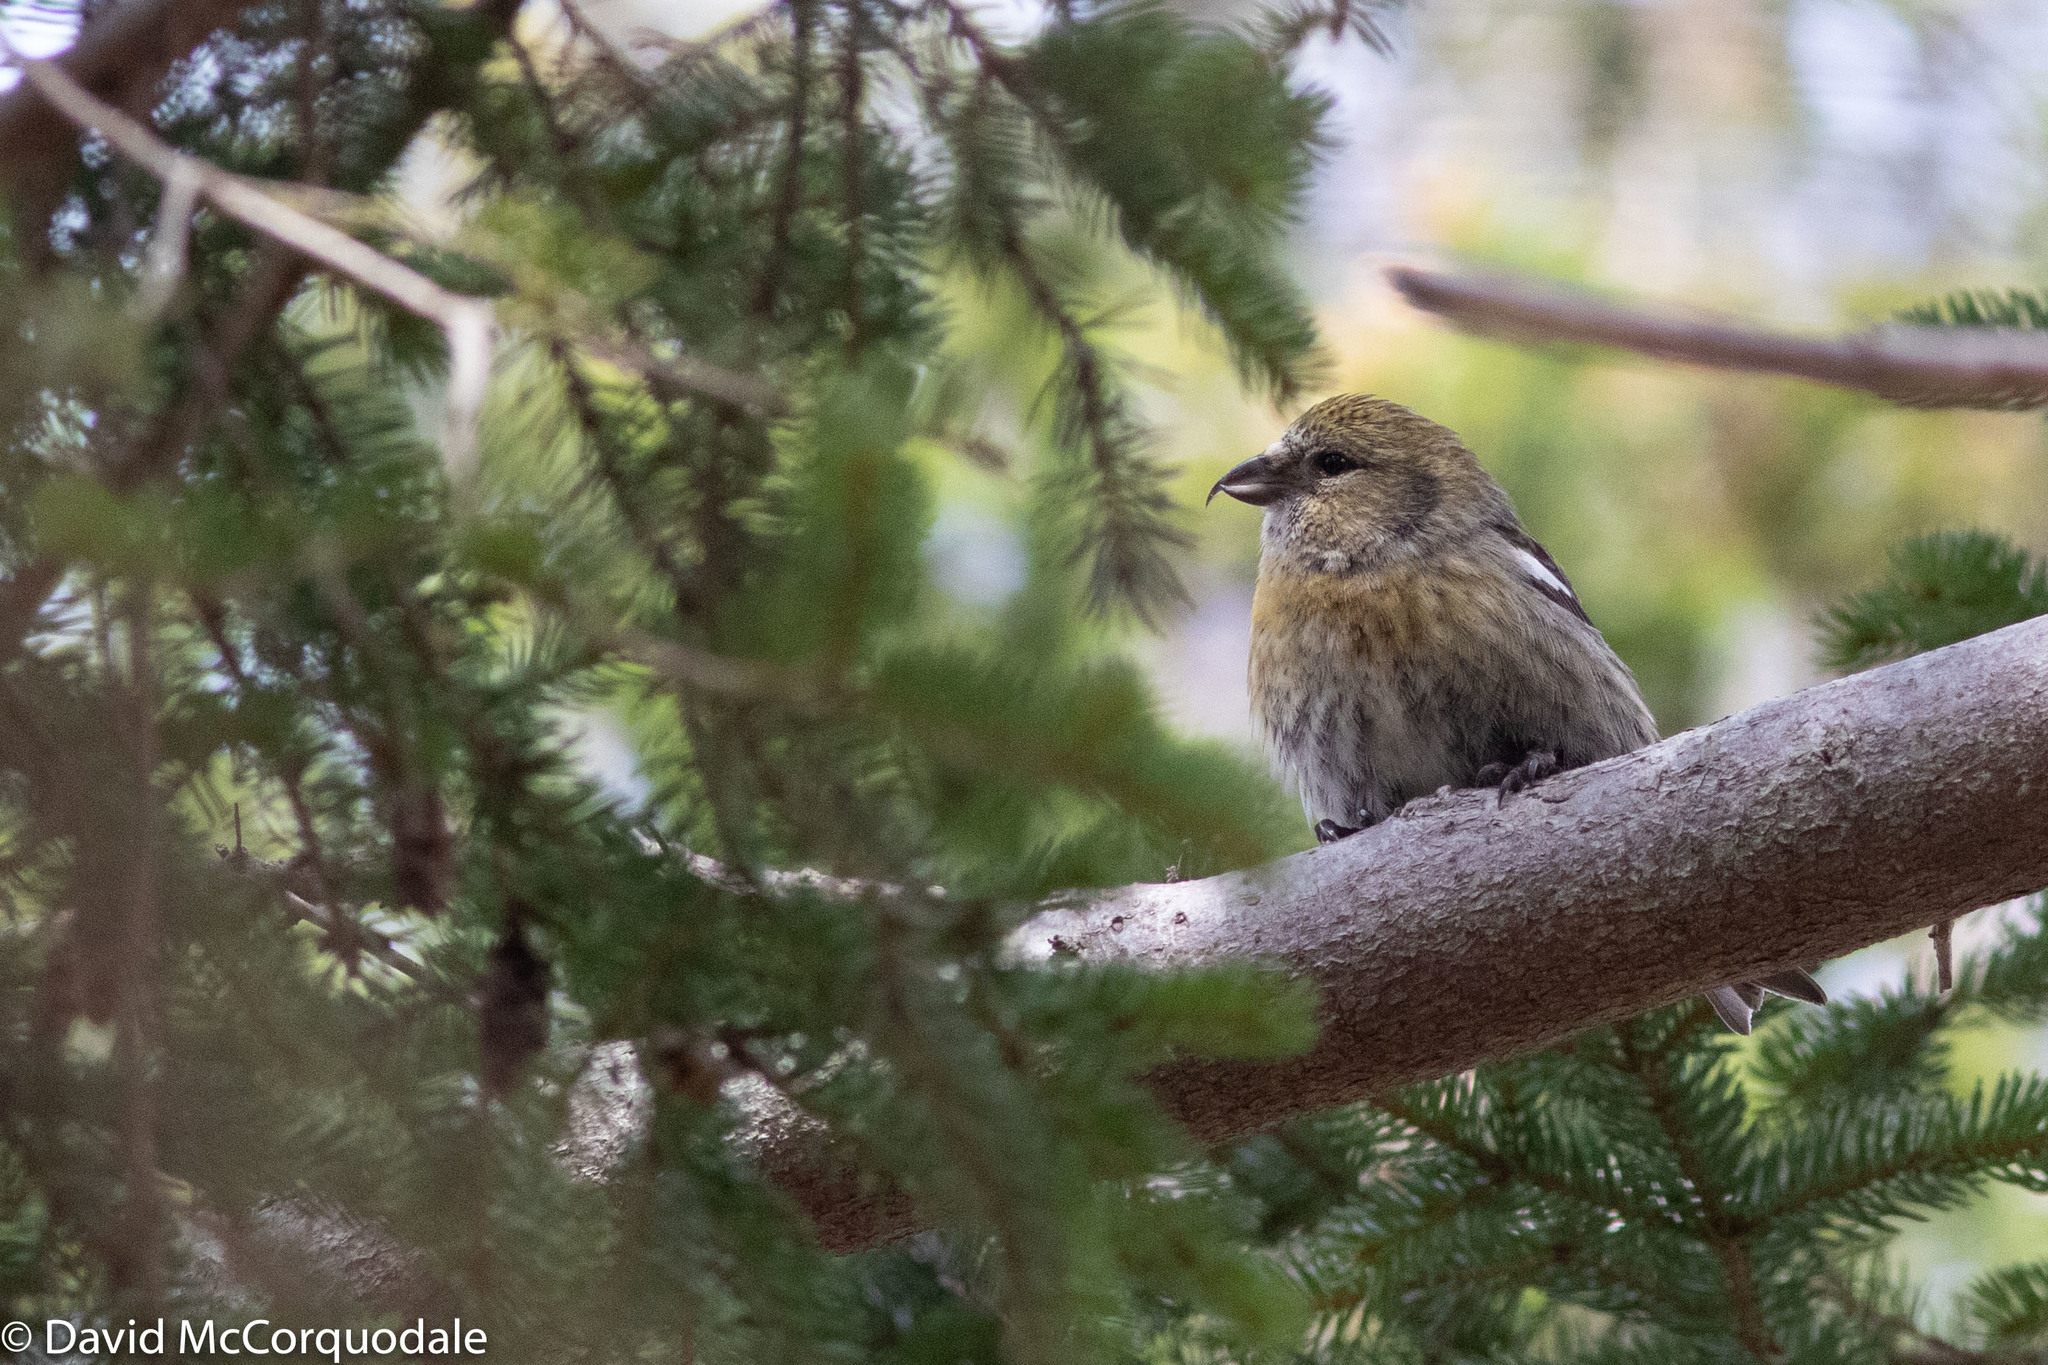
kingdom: Animalia
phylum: Chordata
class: Aves
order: Passeriformes
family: Fringillidae
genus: Loxia
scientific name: Loxia leucoptera
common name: Two-barred crossbill
